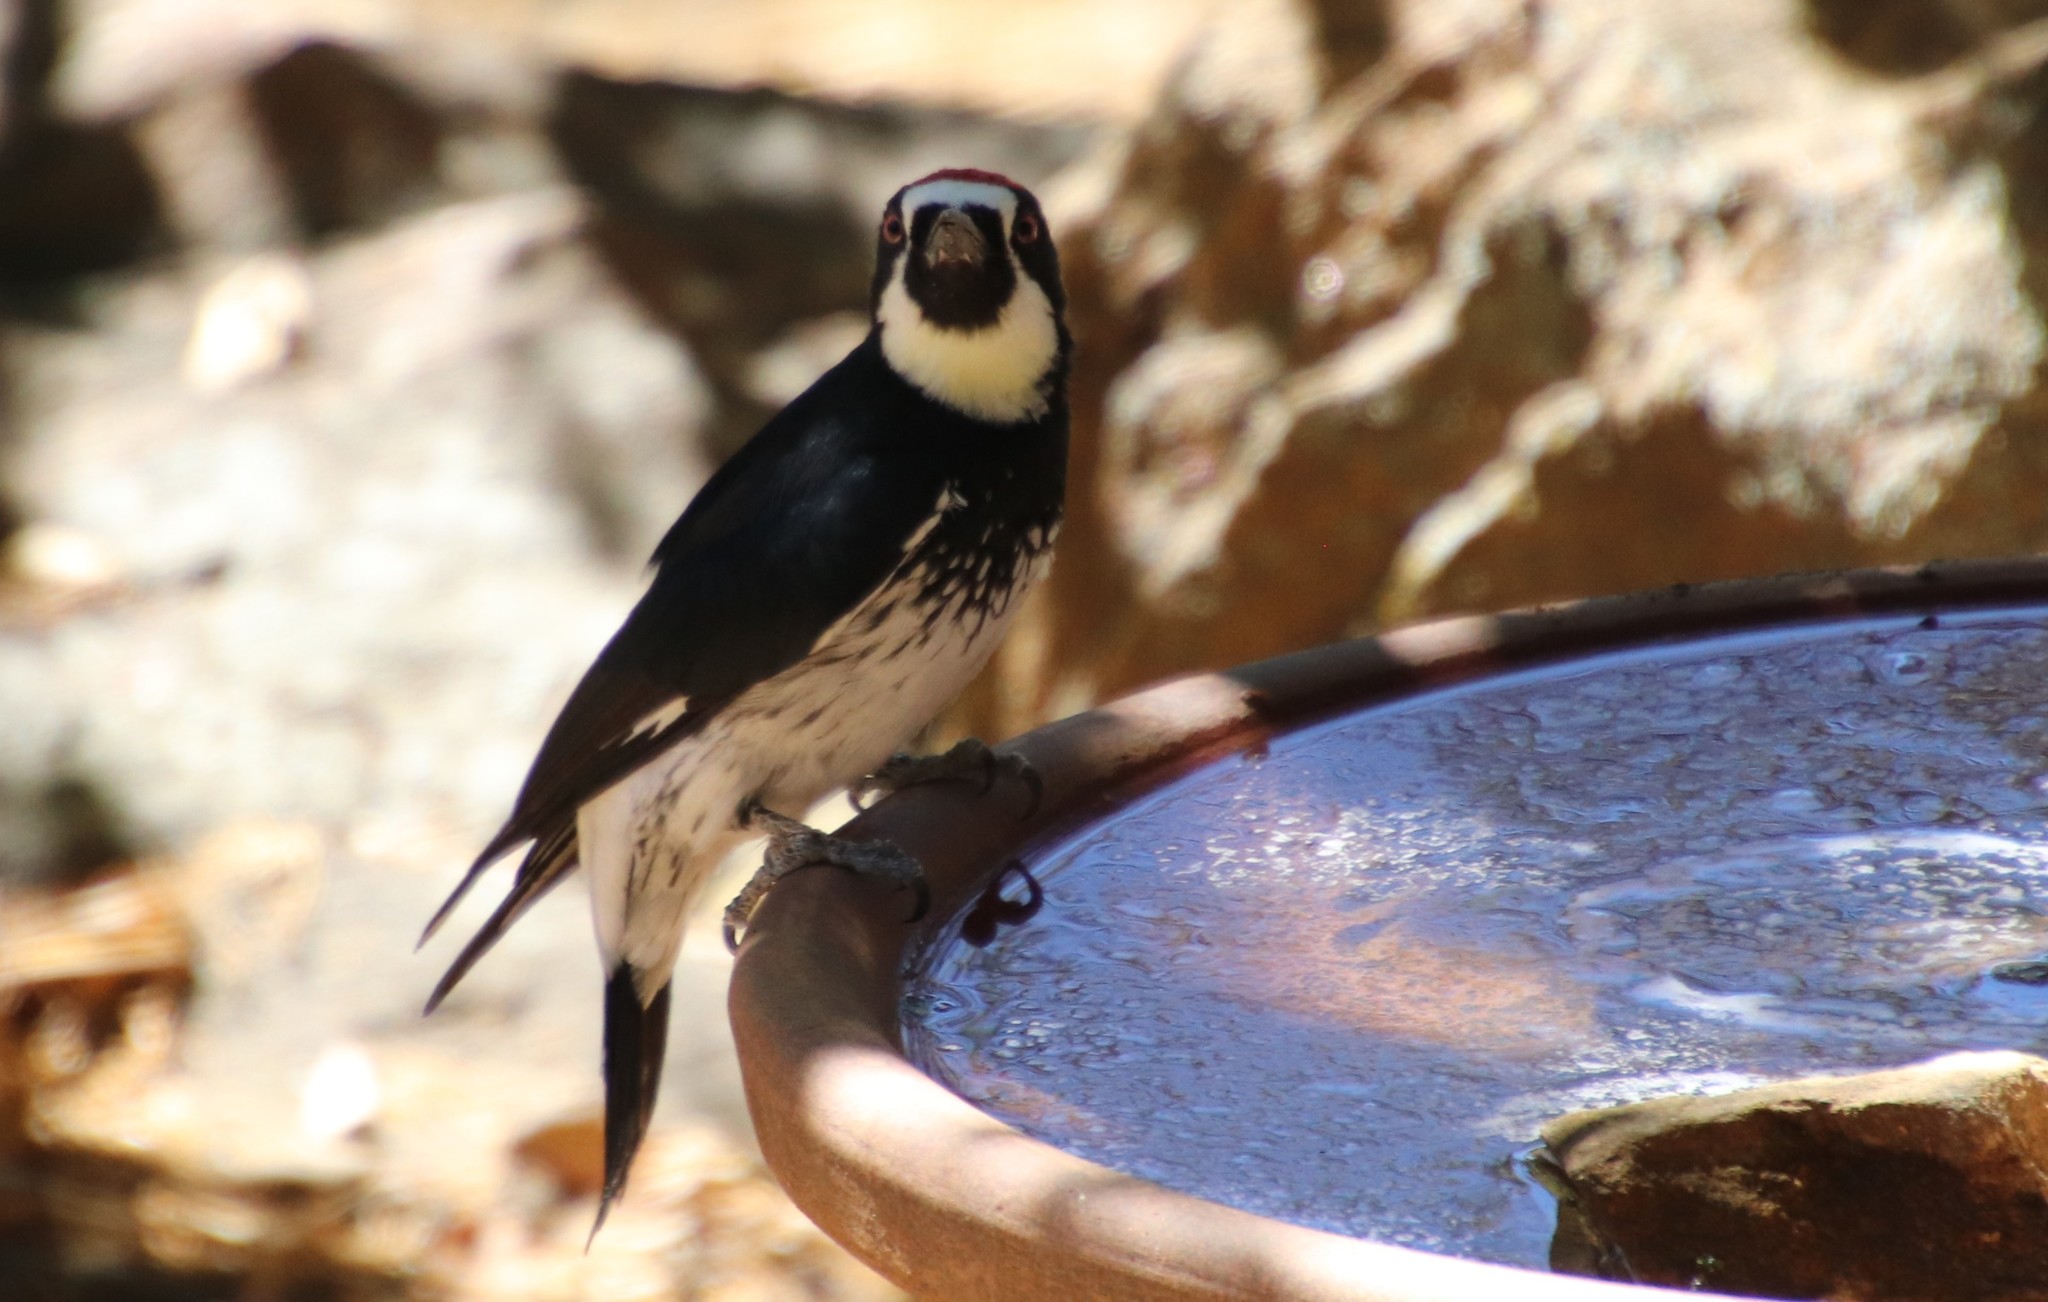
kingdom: Animalia
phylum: Chordata
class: Aves
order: Piciformes
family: Picidae
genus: Melanerpes
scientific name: Melanerpes formicivorus
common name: Acorn woodpecker
